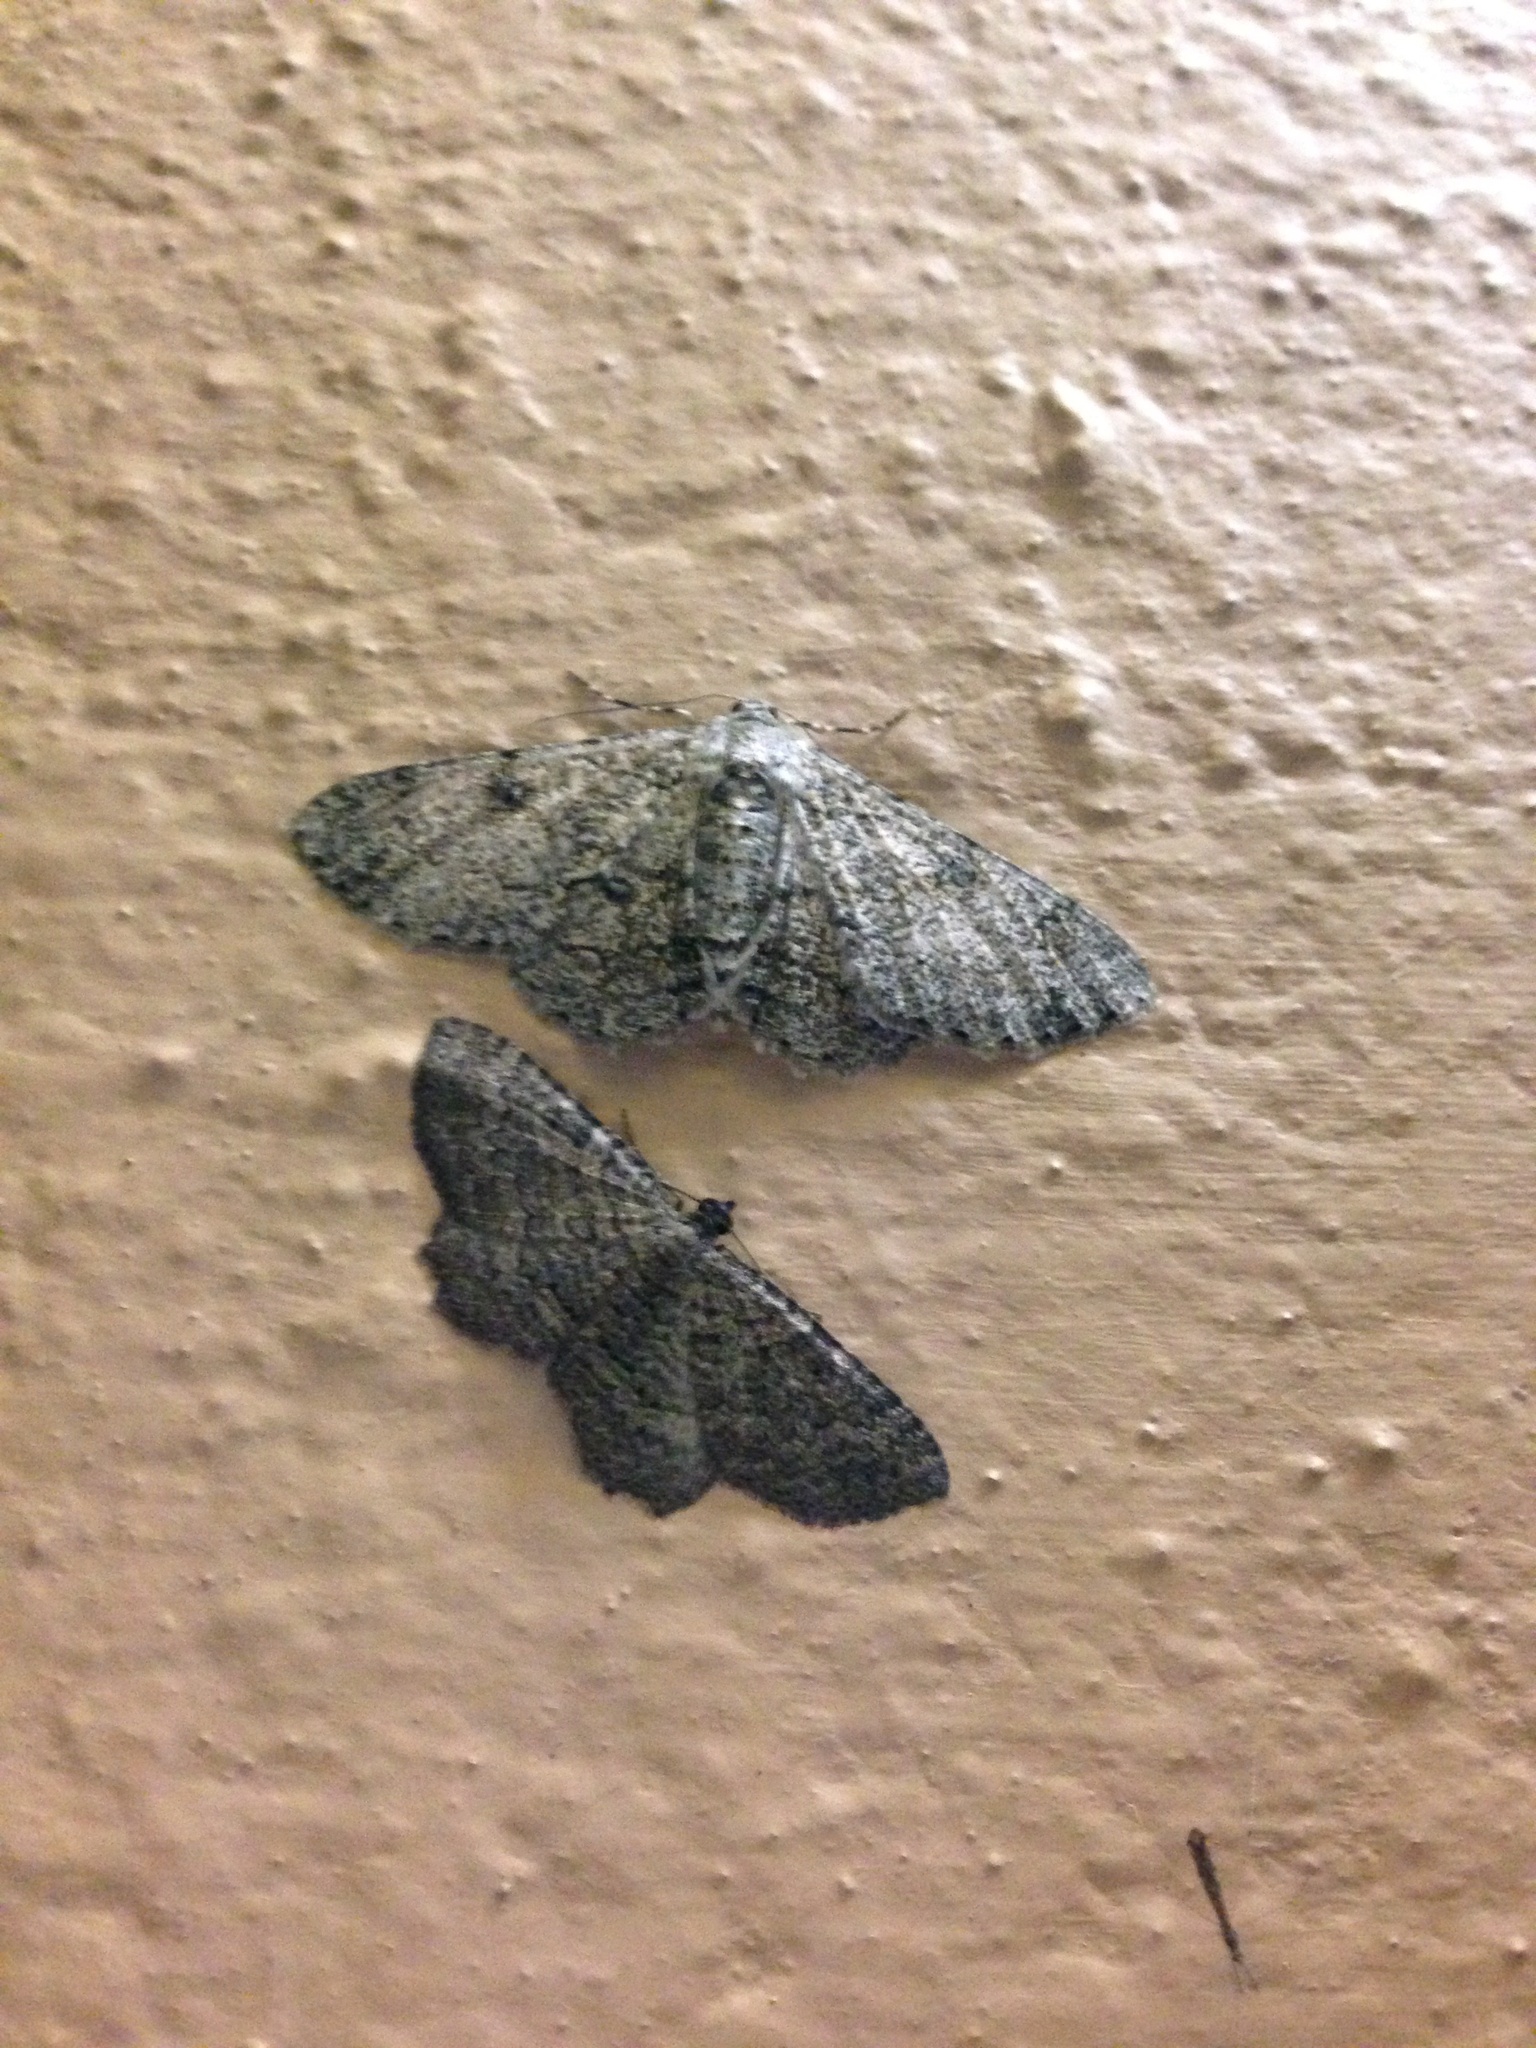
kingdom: Animalia
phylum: Arthropoda
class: Insecta
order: Lepidoptera
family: Geometridae
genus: Ascotis
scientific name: Ascotis reciprocaria
